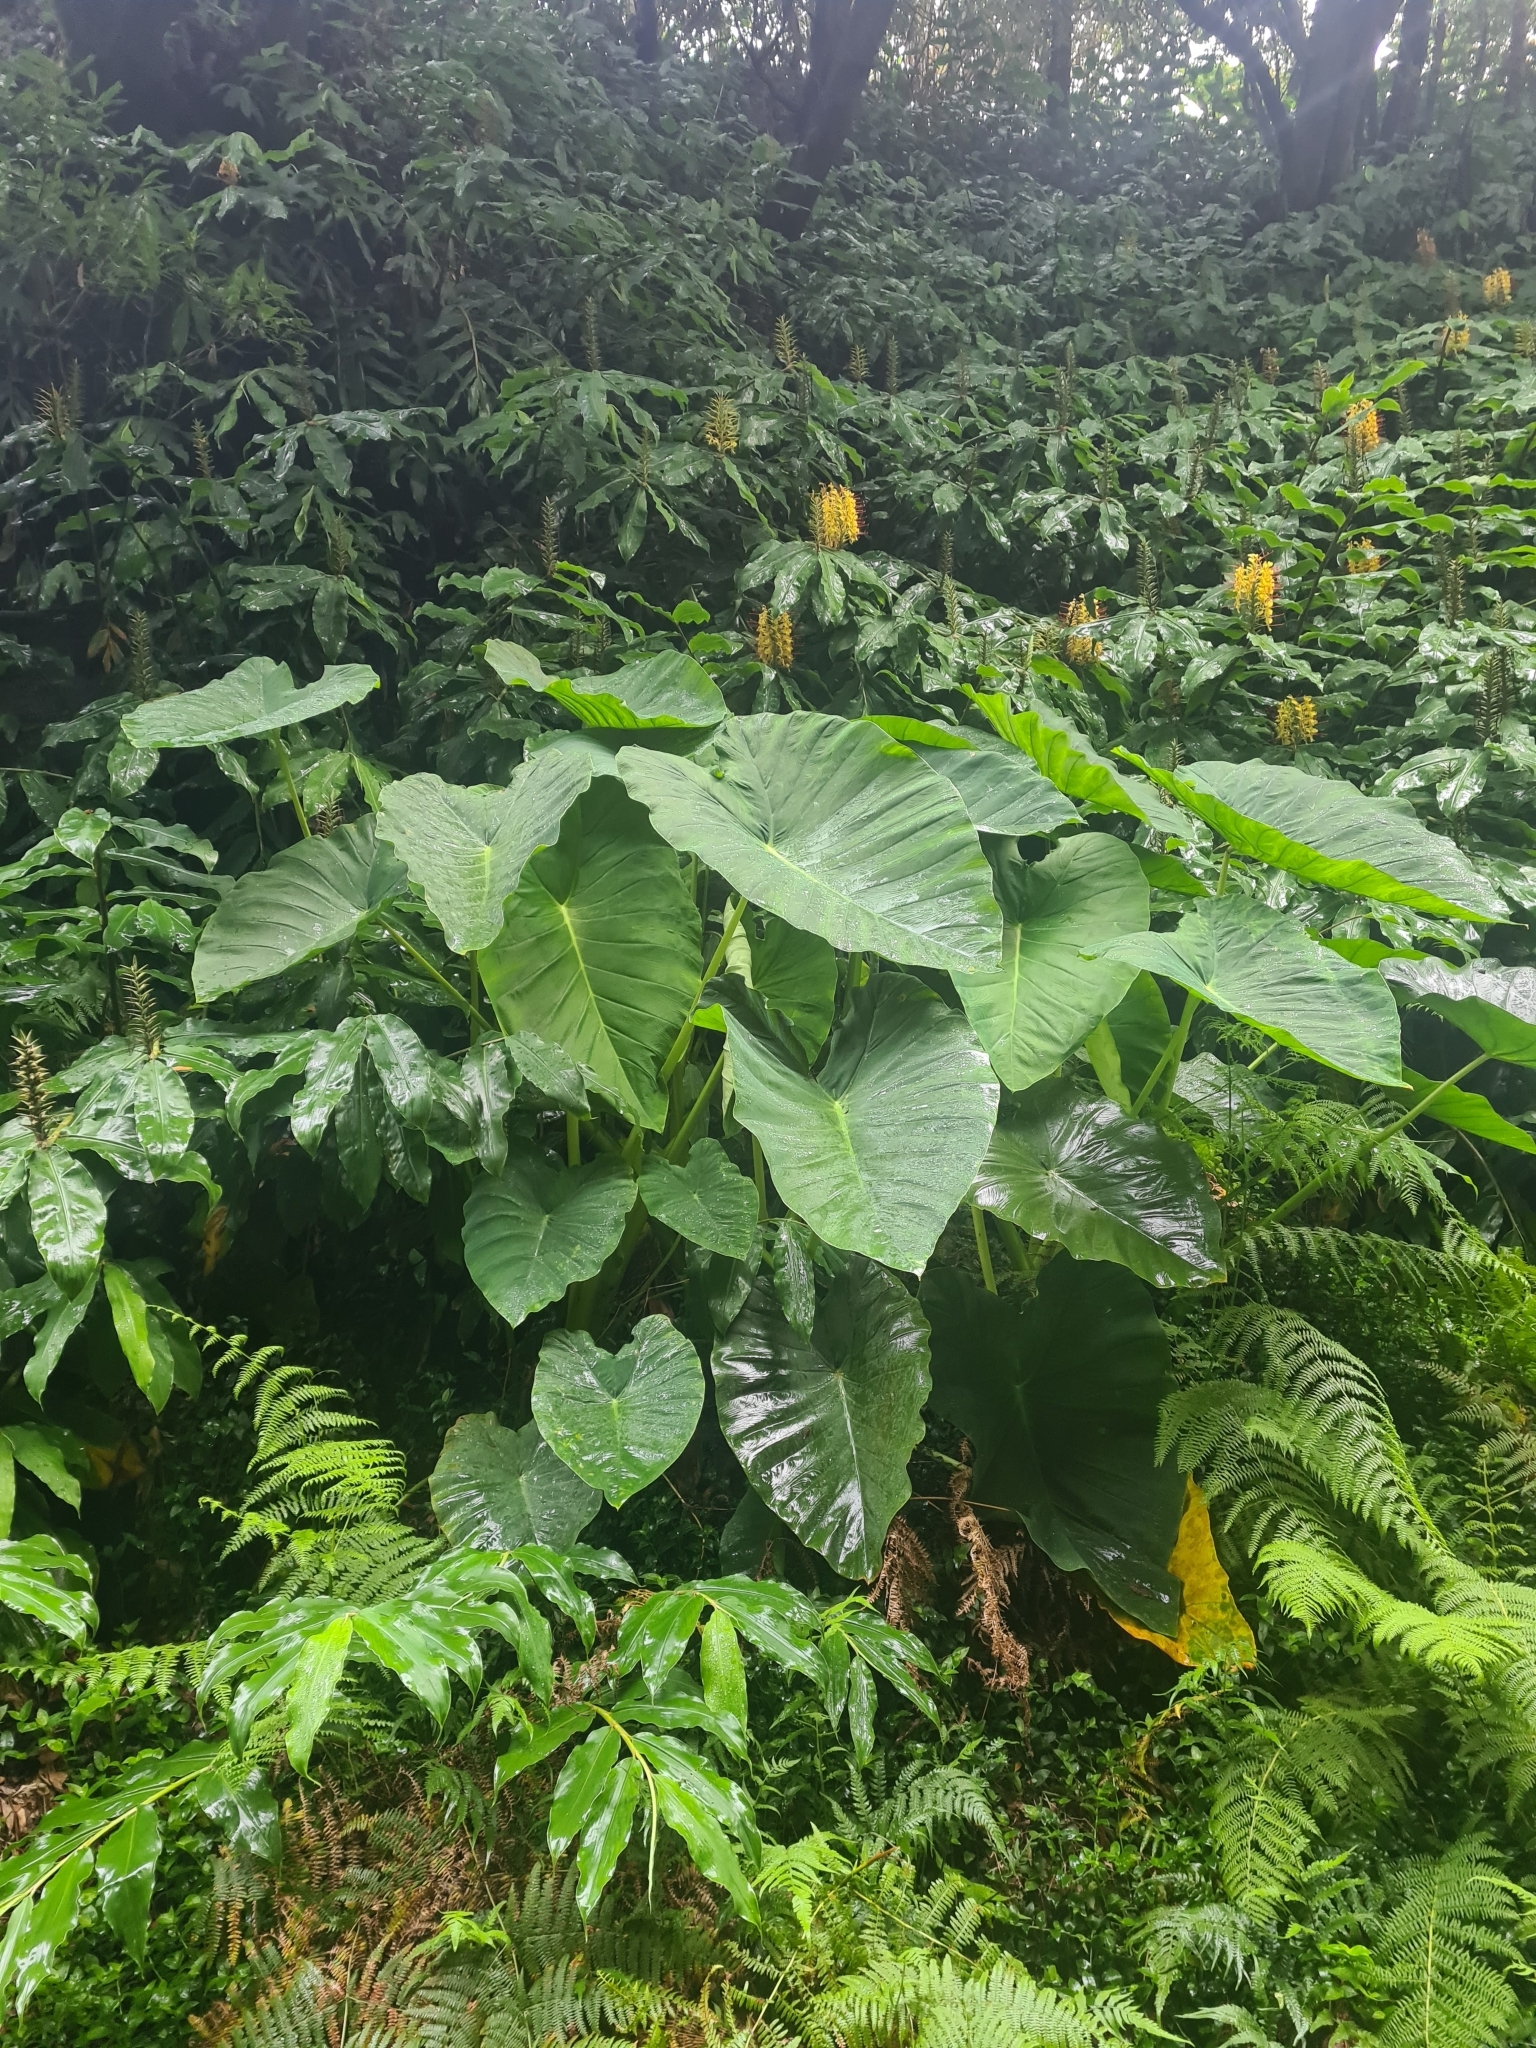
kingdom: Plantae
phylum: Tracheophyta
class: Liliopsida
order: Alismatales
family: Araceae
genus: Colocasia
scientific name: Colocasia esculenta
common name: Taro
